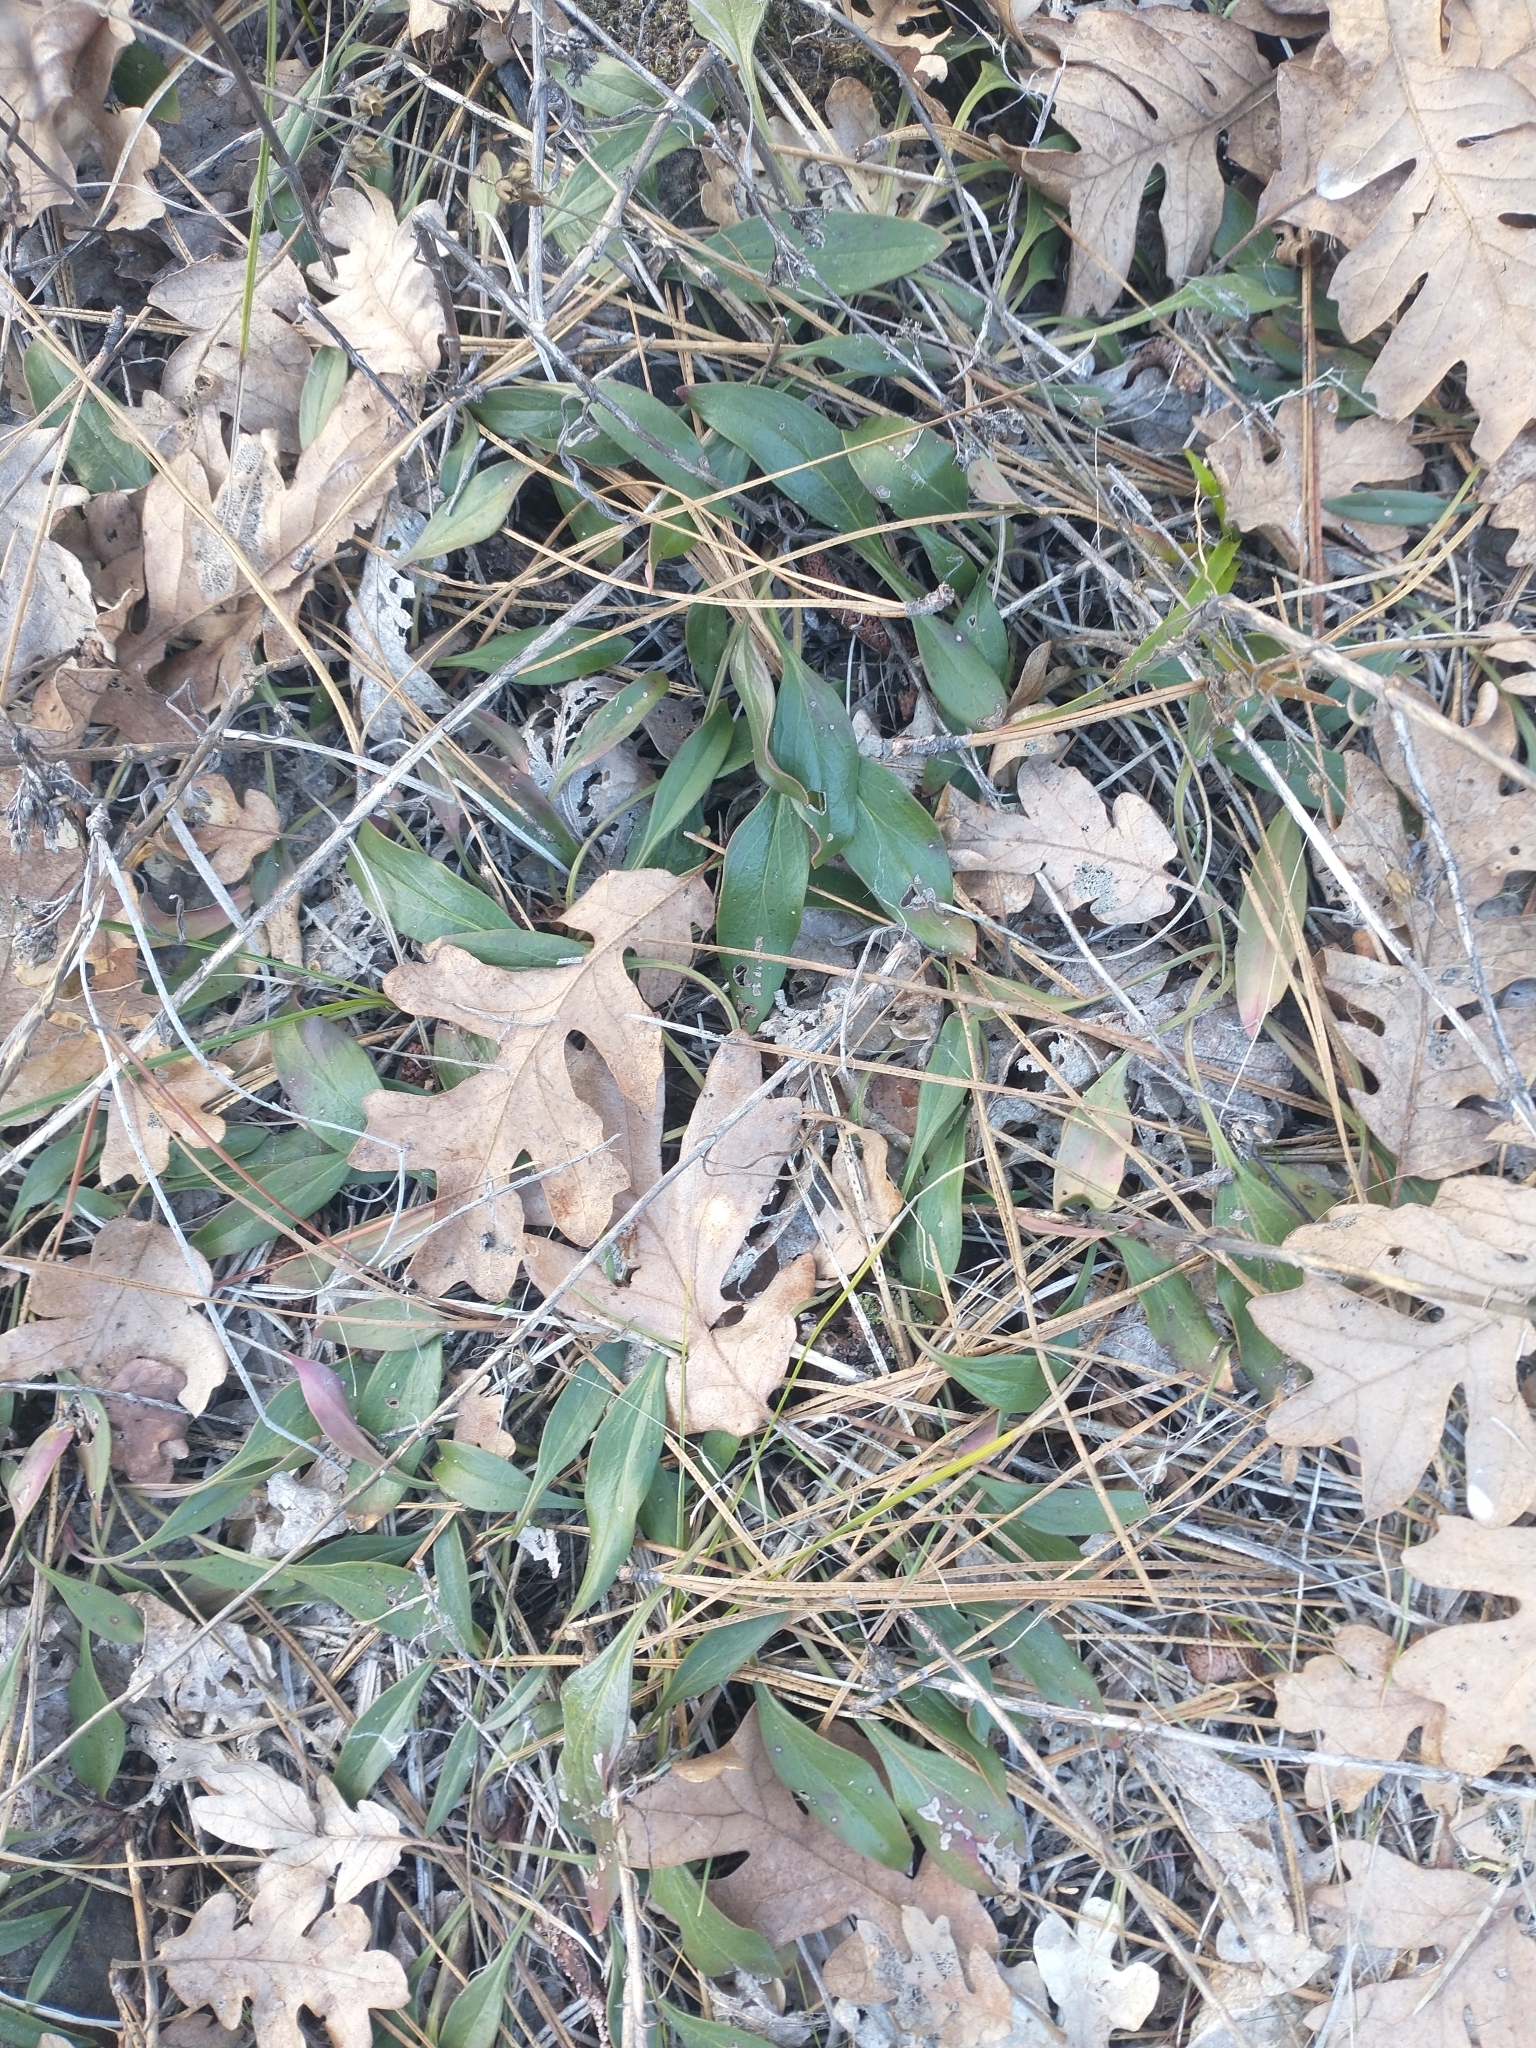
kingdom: Plantae
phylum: Tracheophyta
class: Magnoliopsida
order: Fagales
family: Fagaceae
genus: Quercus
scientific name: Quercus garryana
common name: Garry oak
